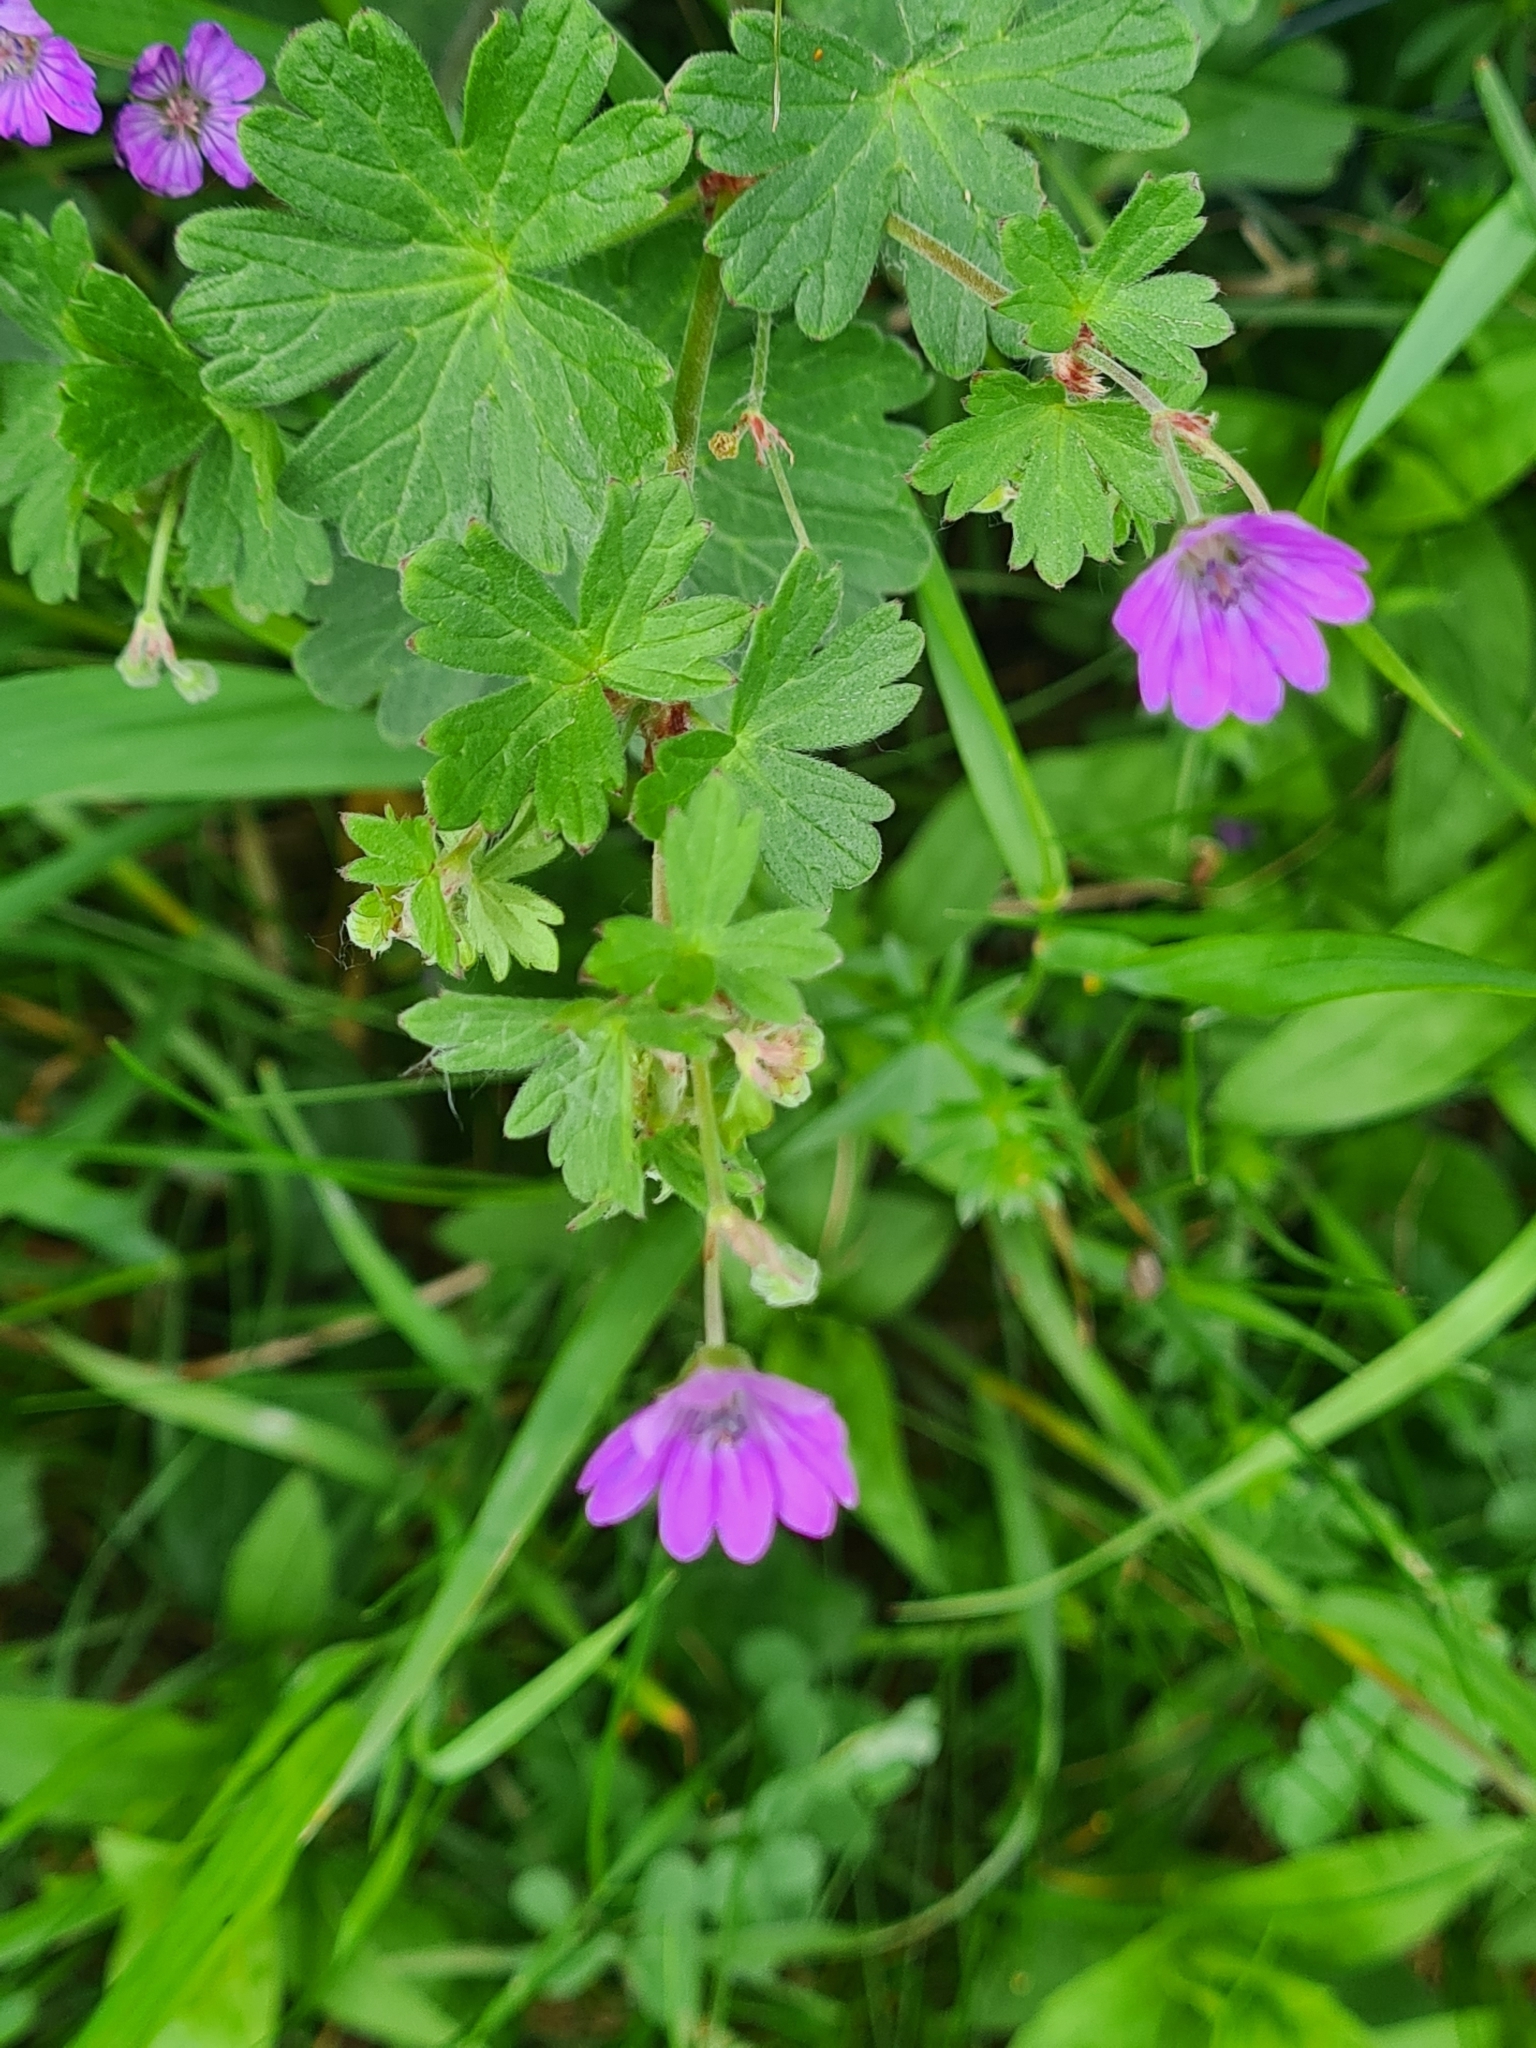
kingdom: Plantae
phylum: Tracheophyta
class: Magnoliopsida
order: Geraniales
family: Geraniaceae
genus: Geranium
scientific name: Geranium pyrenaicum
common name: Hedgerow crane's-bill
